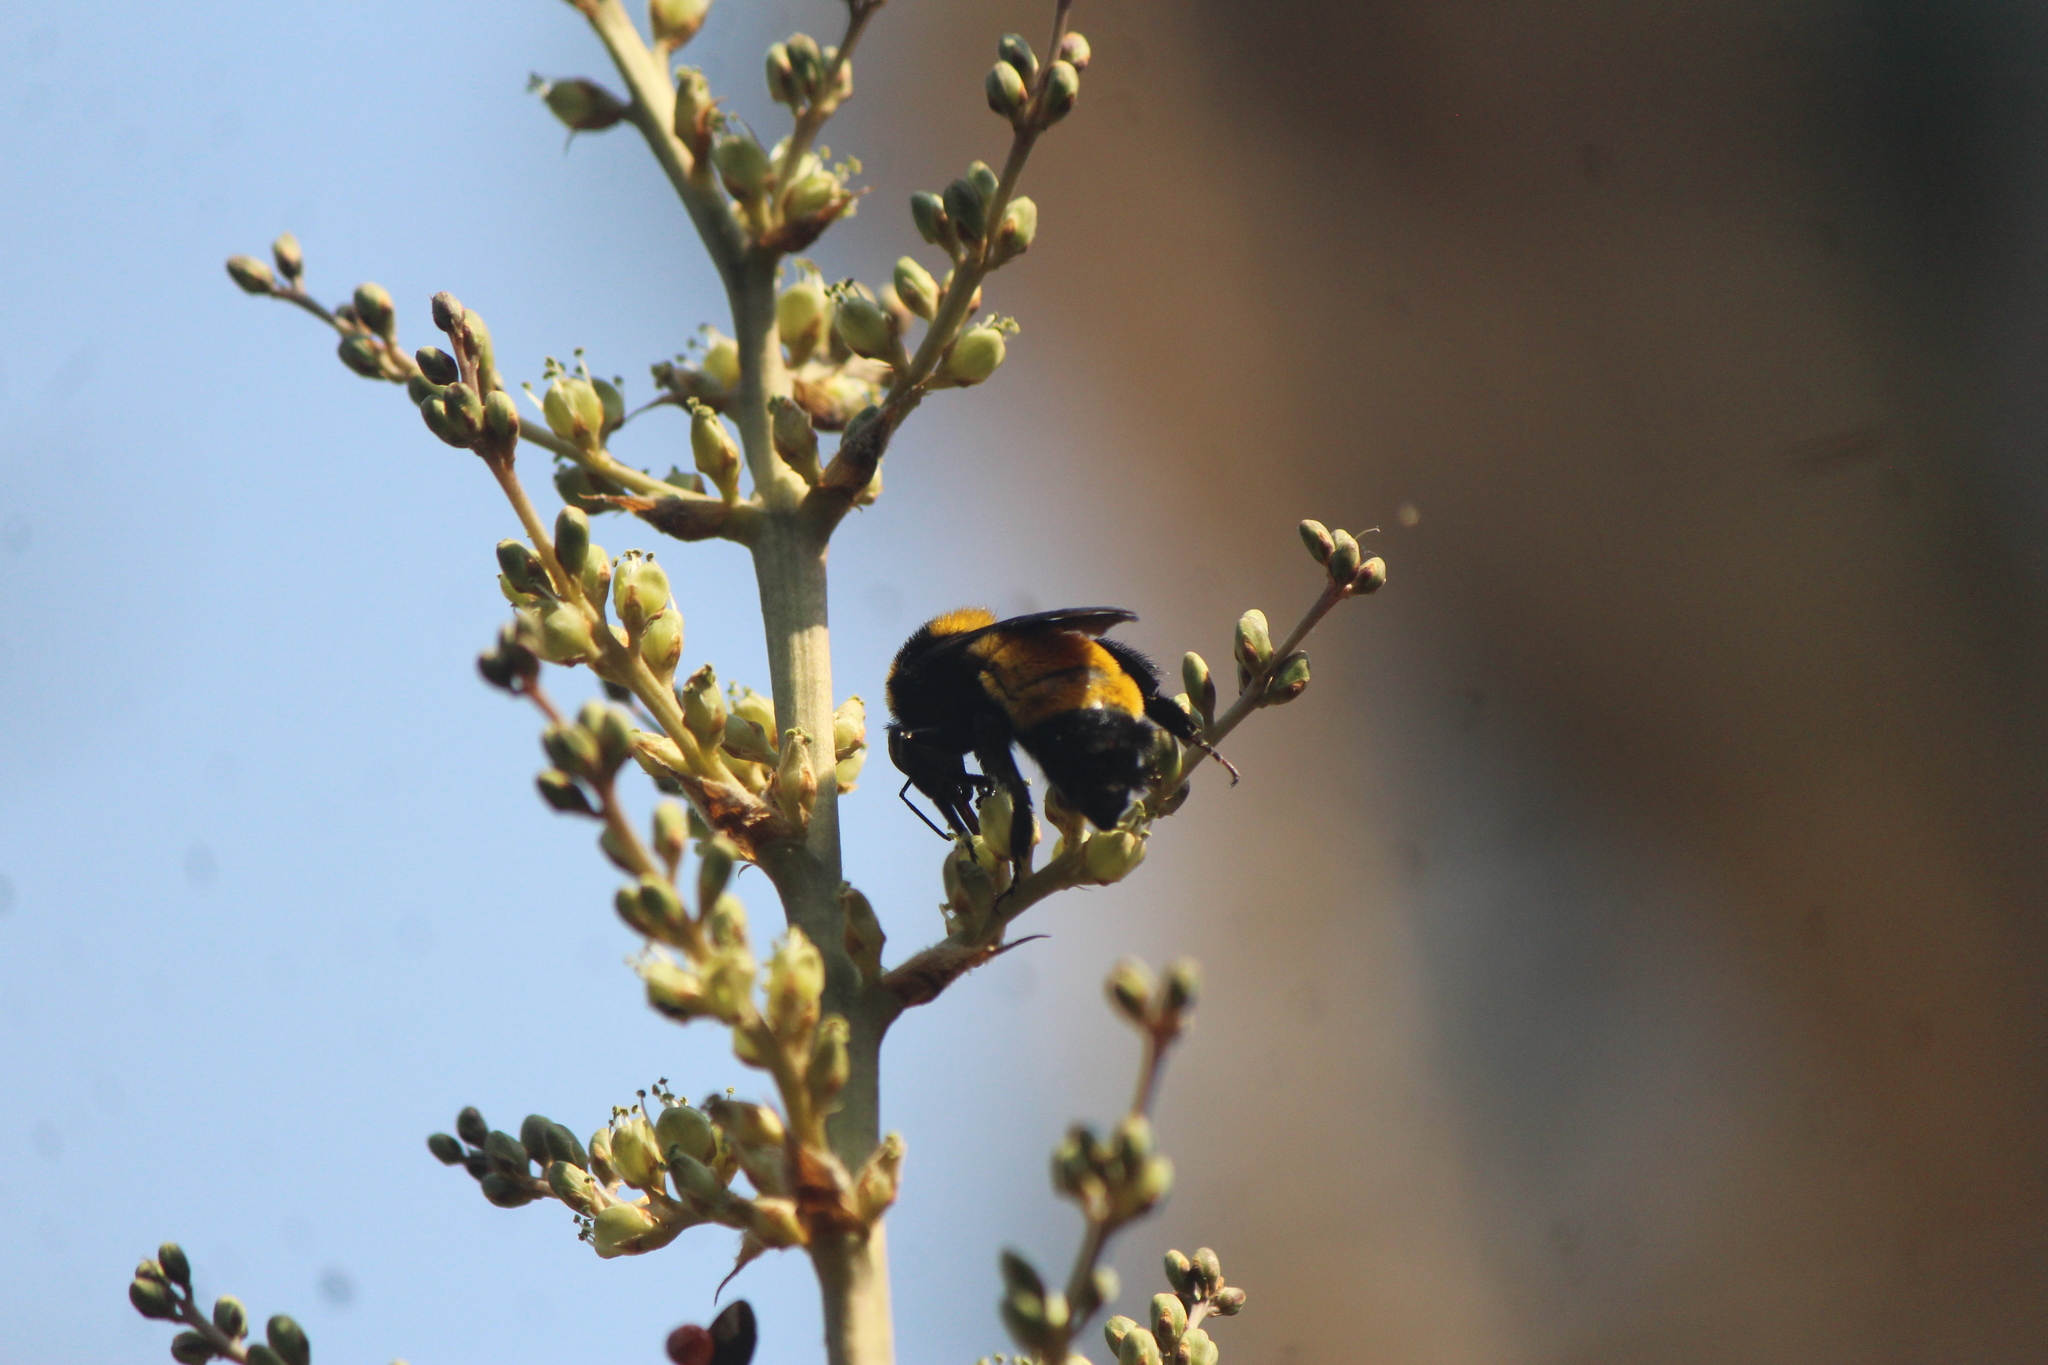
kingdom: Animalia
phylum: Arthropoda
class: Insecta
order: Hymenoptera
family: Apidae
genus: Bombus
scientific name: Bombus sonorus
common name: Sonoran bumble bee
